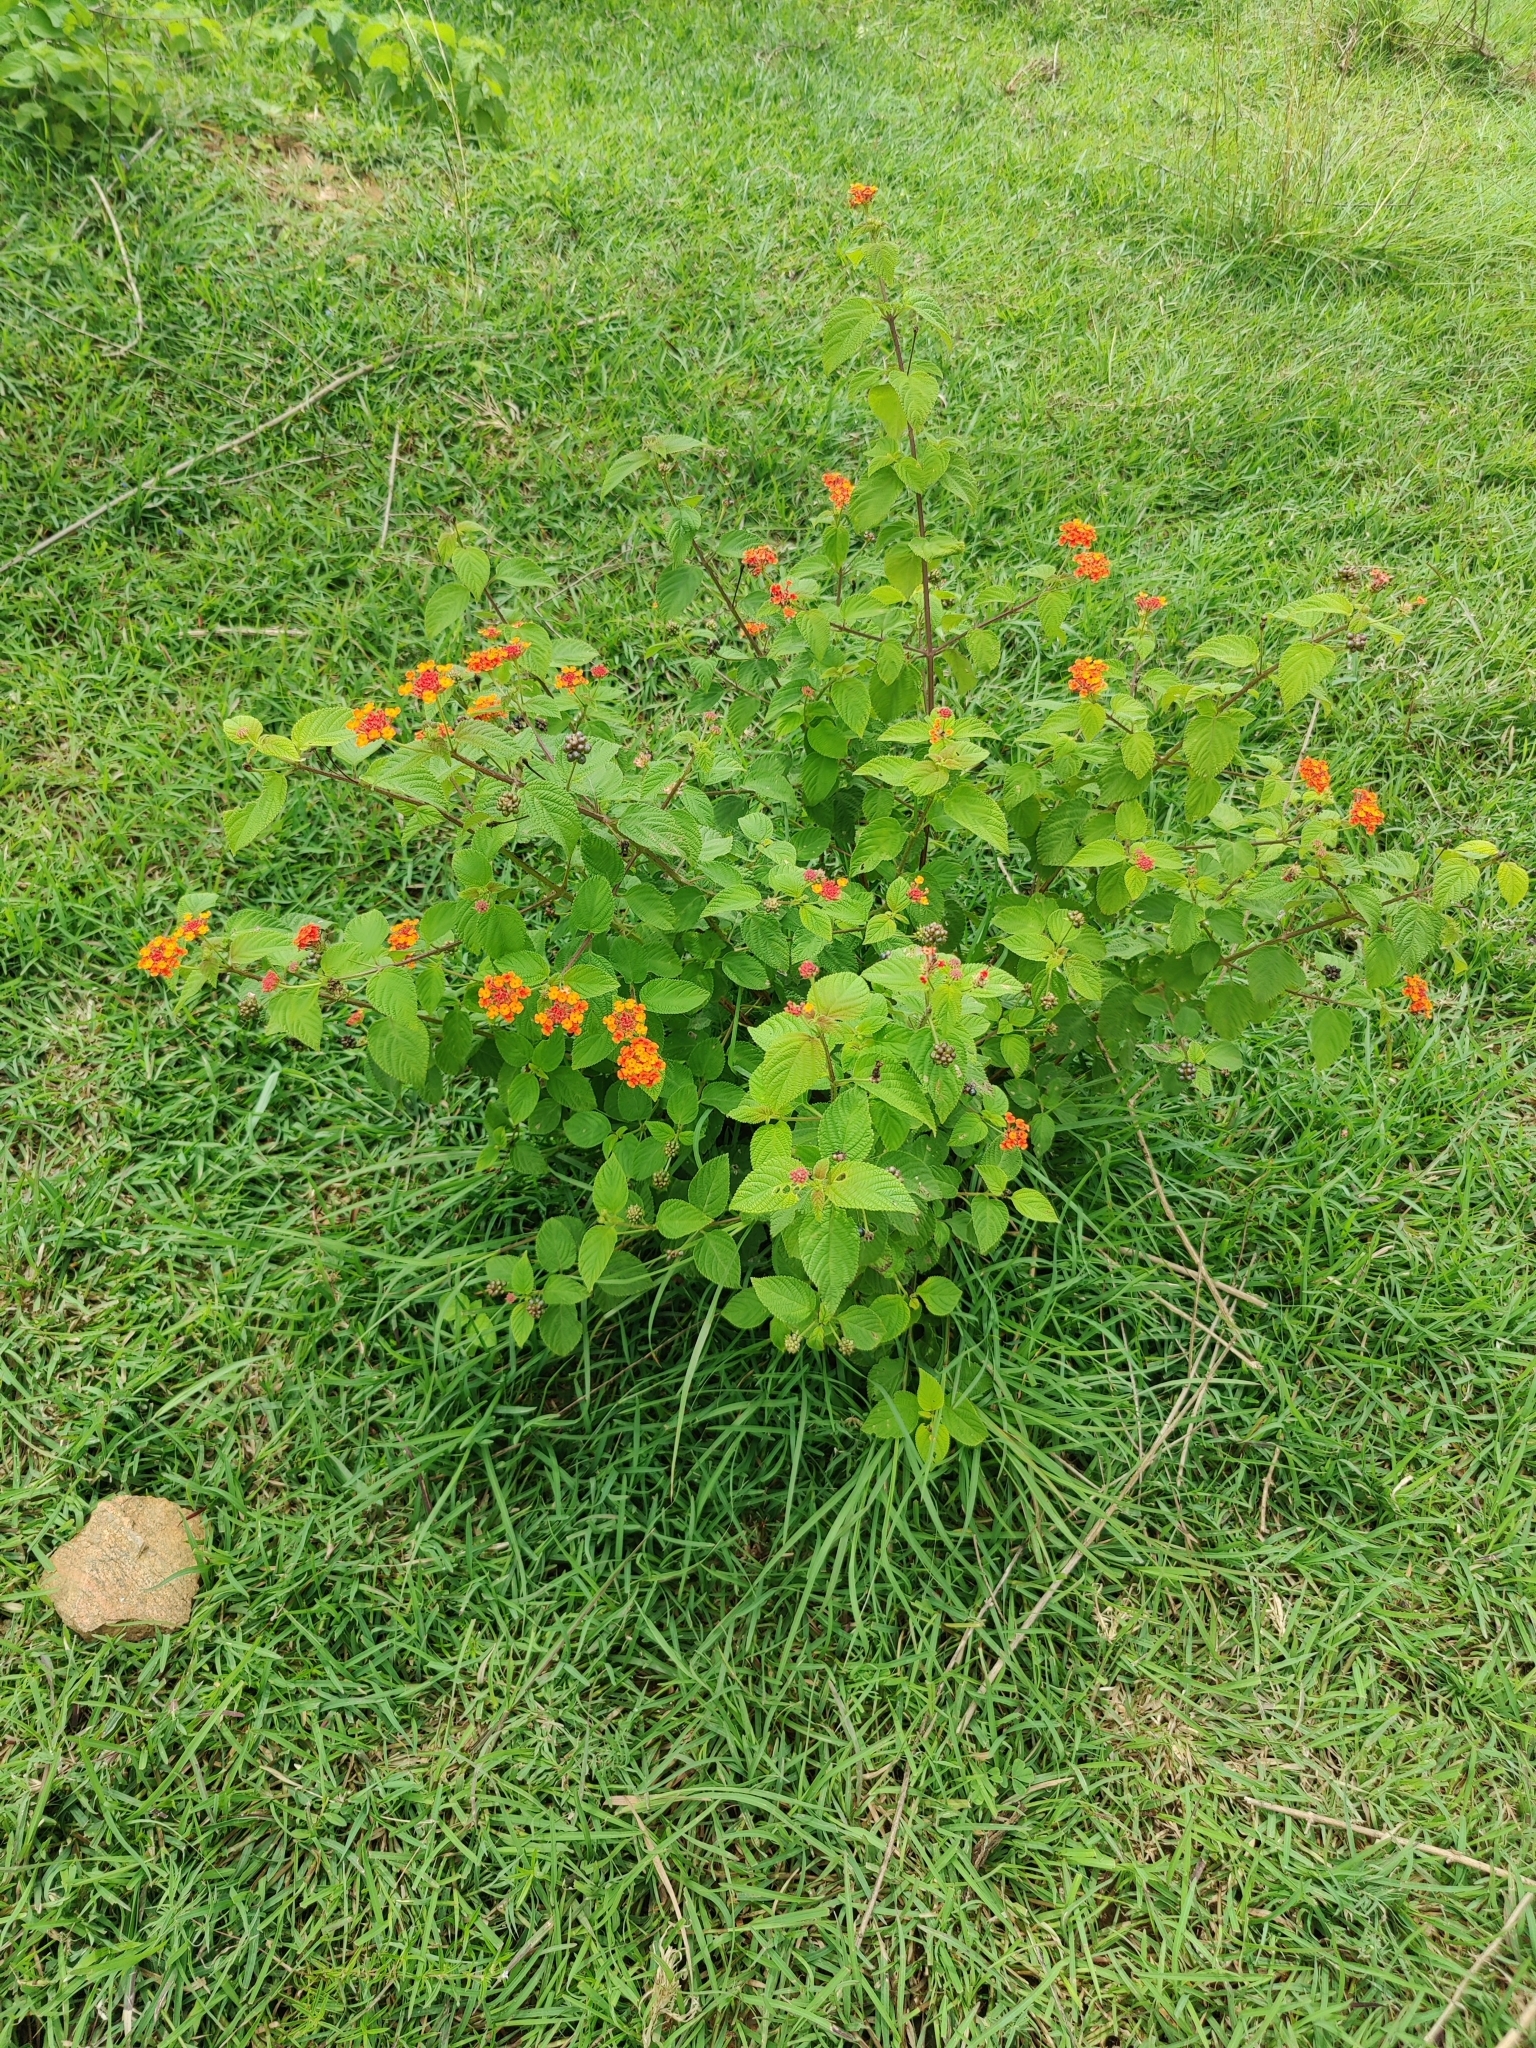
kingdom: Plantae
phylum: Tracheophyta
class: Magnoliopsida
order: Lamiales
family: Verbenaceae
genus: Lantana
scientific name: Lantana camara
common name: Lantana
